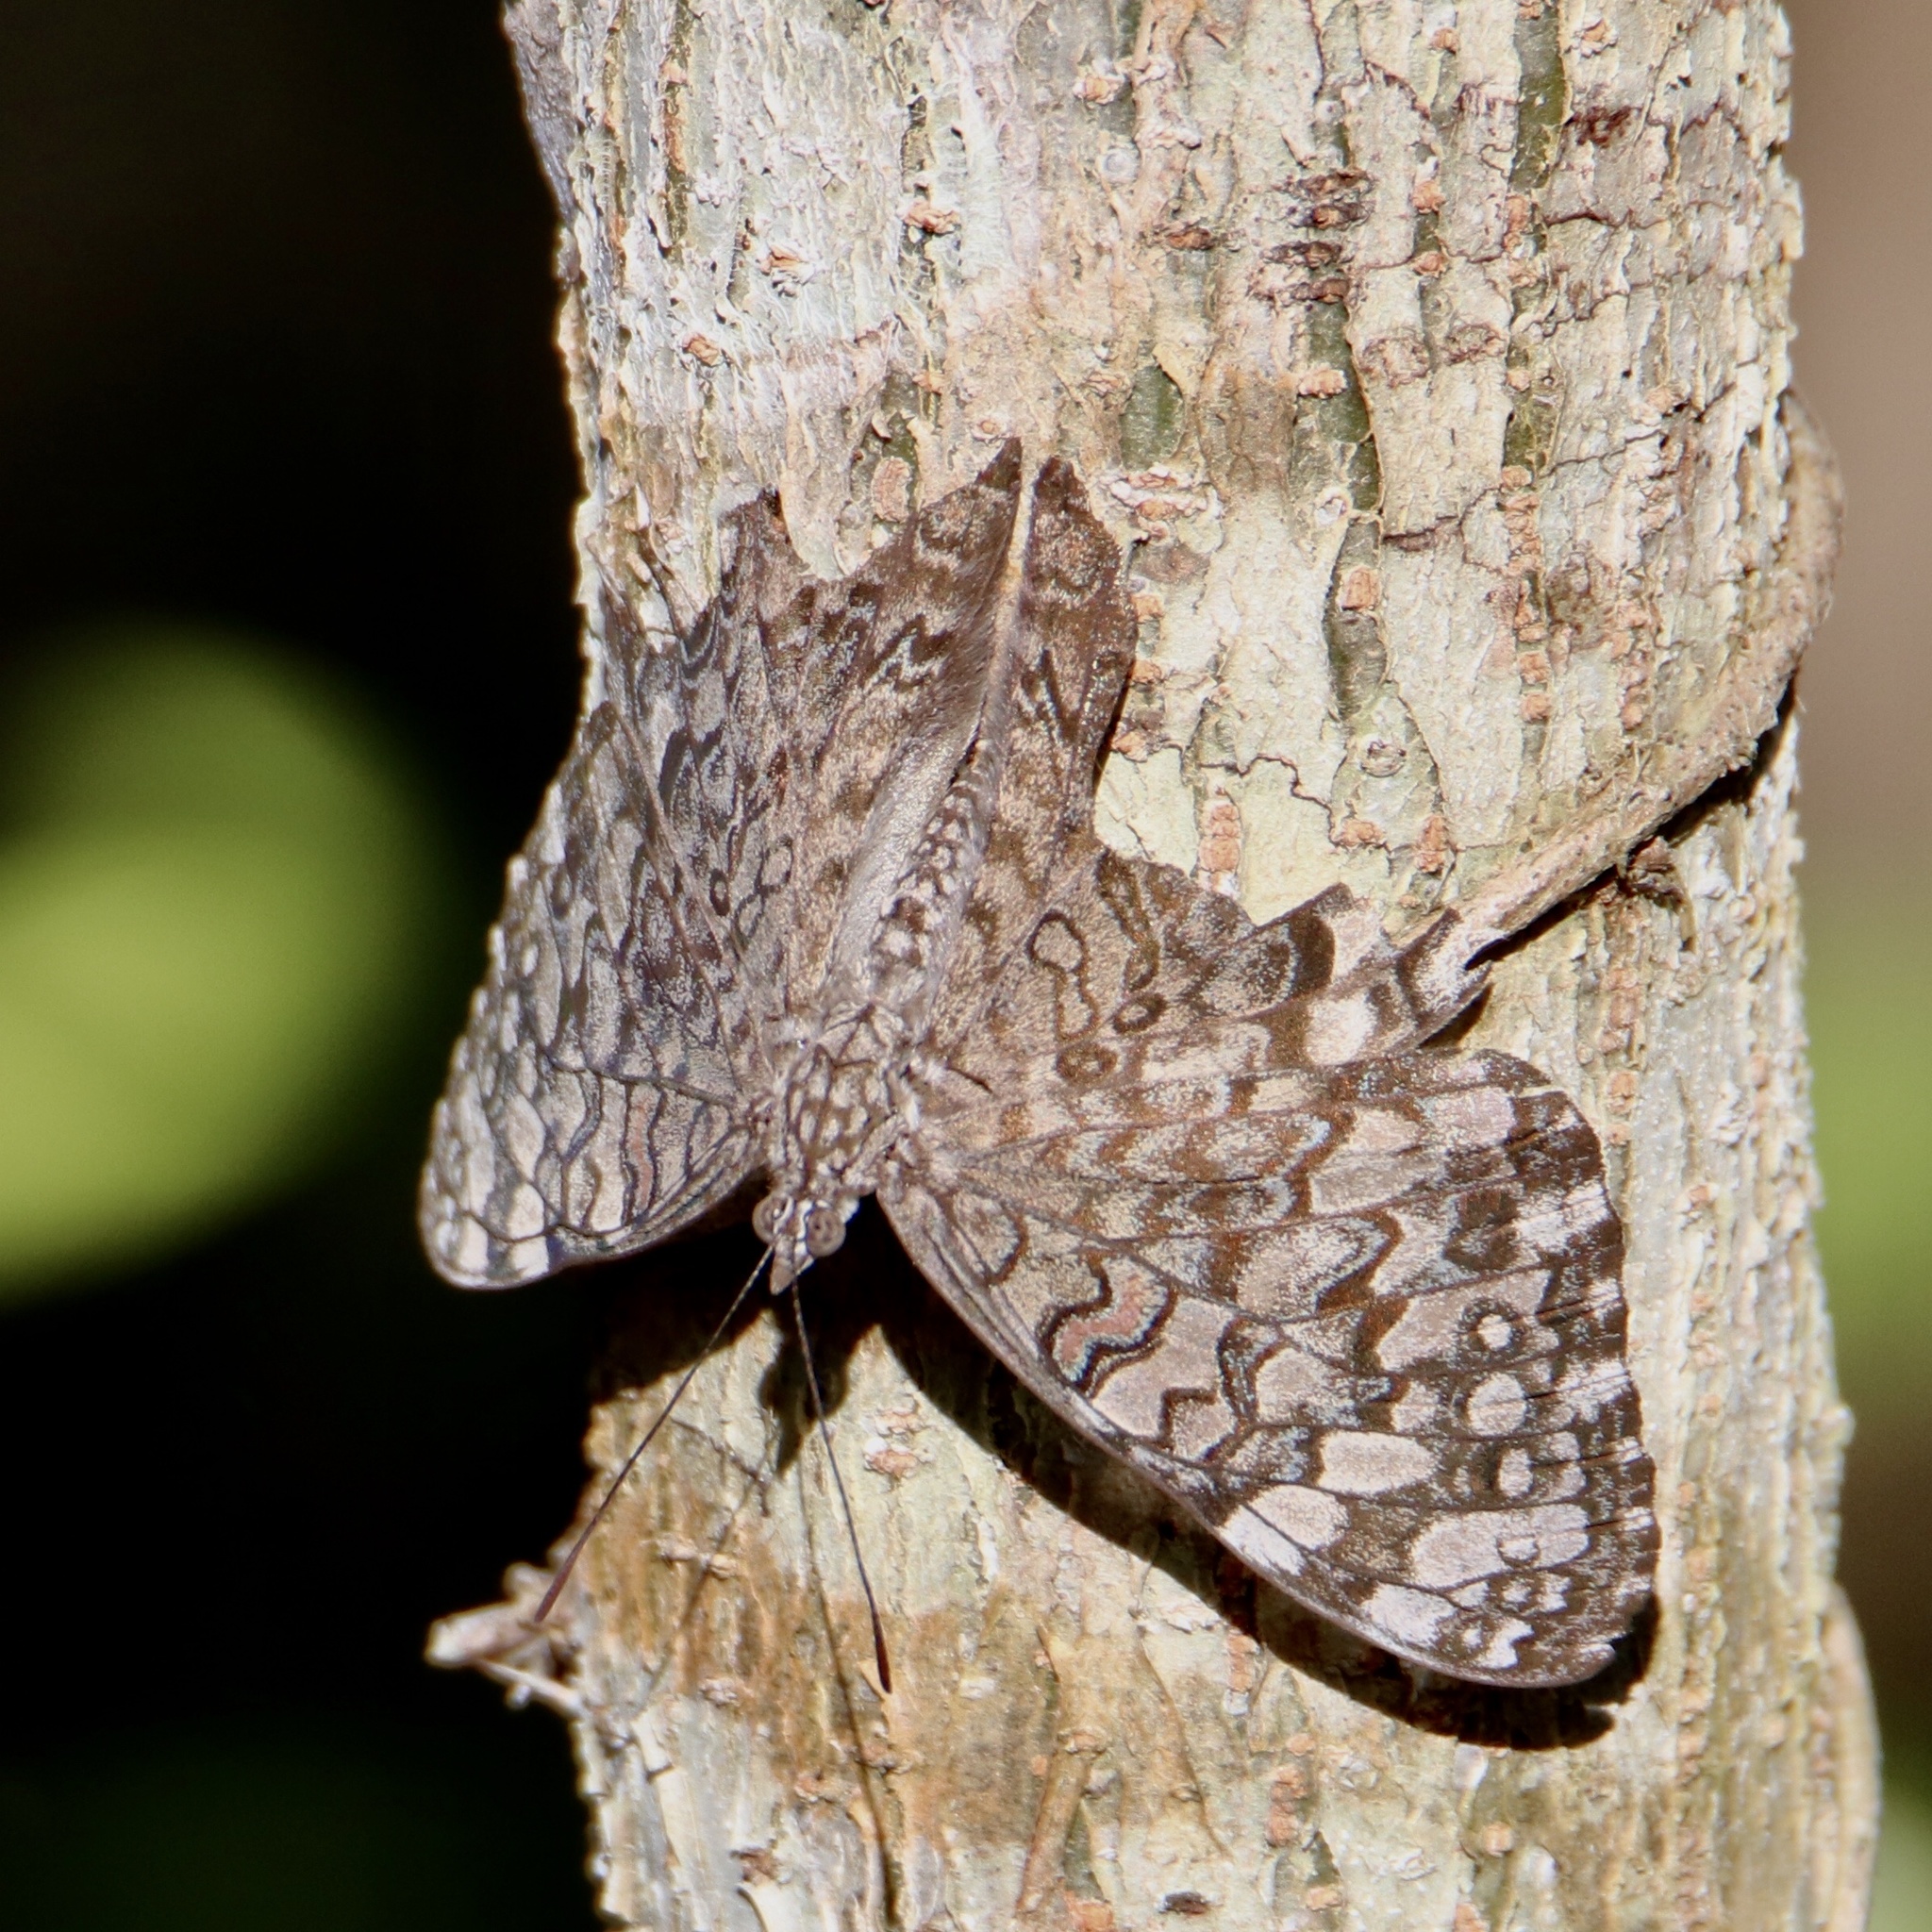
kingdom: Animalia
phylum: Arthropoda
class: Insecta
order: Lepidoptera
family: Nymphalidae
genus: Hamadryas
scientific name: Hamadryas februa
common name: Gray cracker
